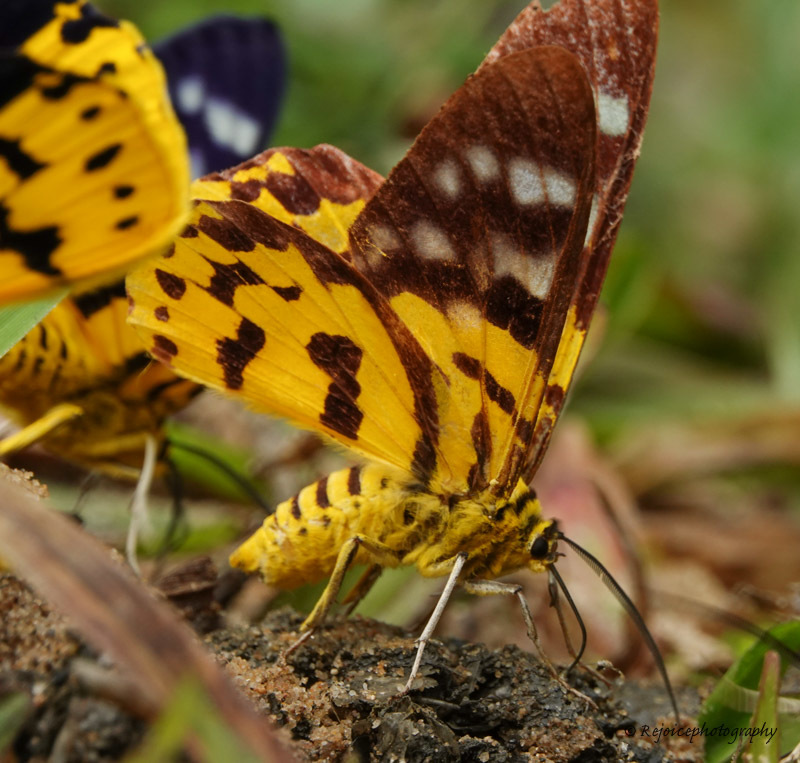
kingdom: Animalia
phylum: Arthropoda
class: Insecta
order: Lepidoptera
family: Geometridae
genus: Dysphania
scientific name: Dysphania militaris
